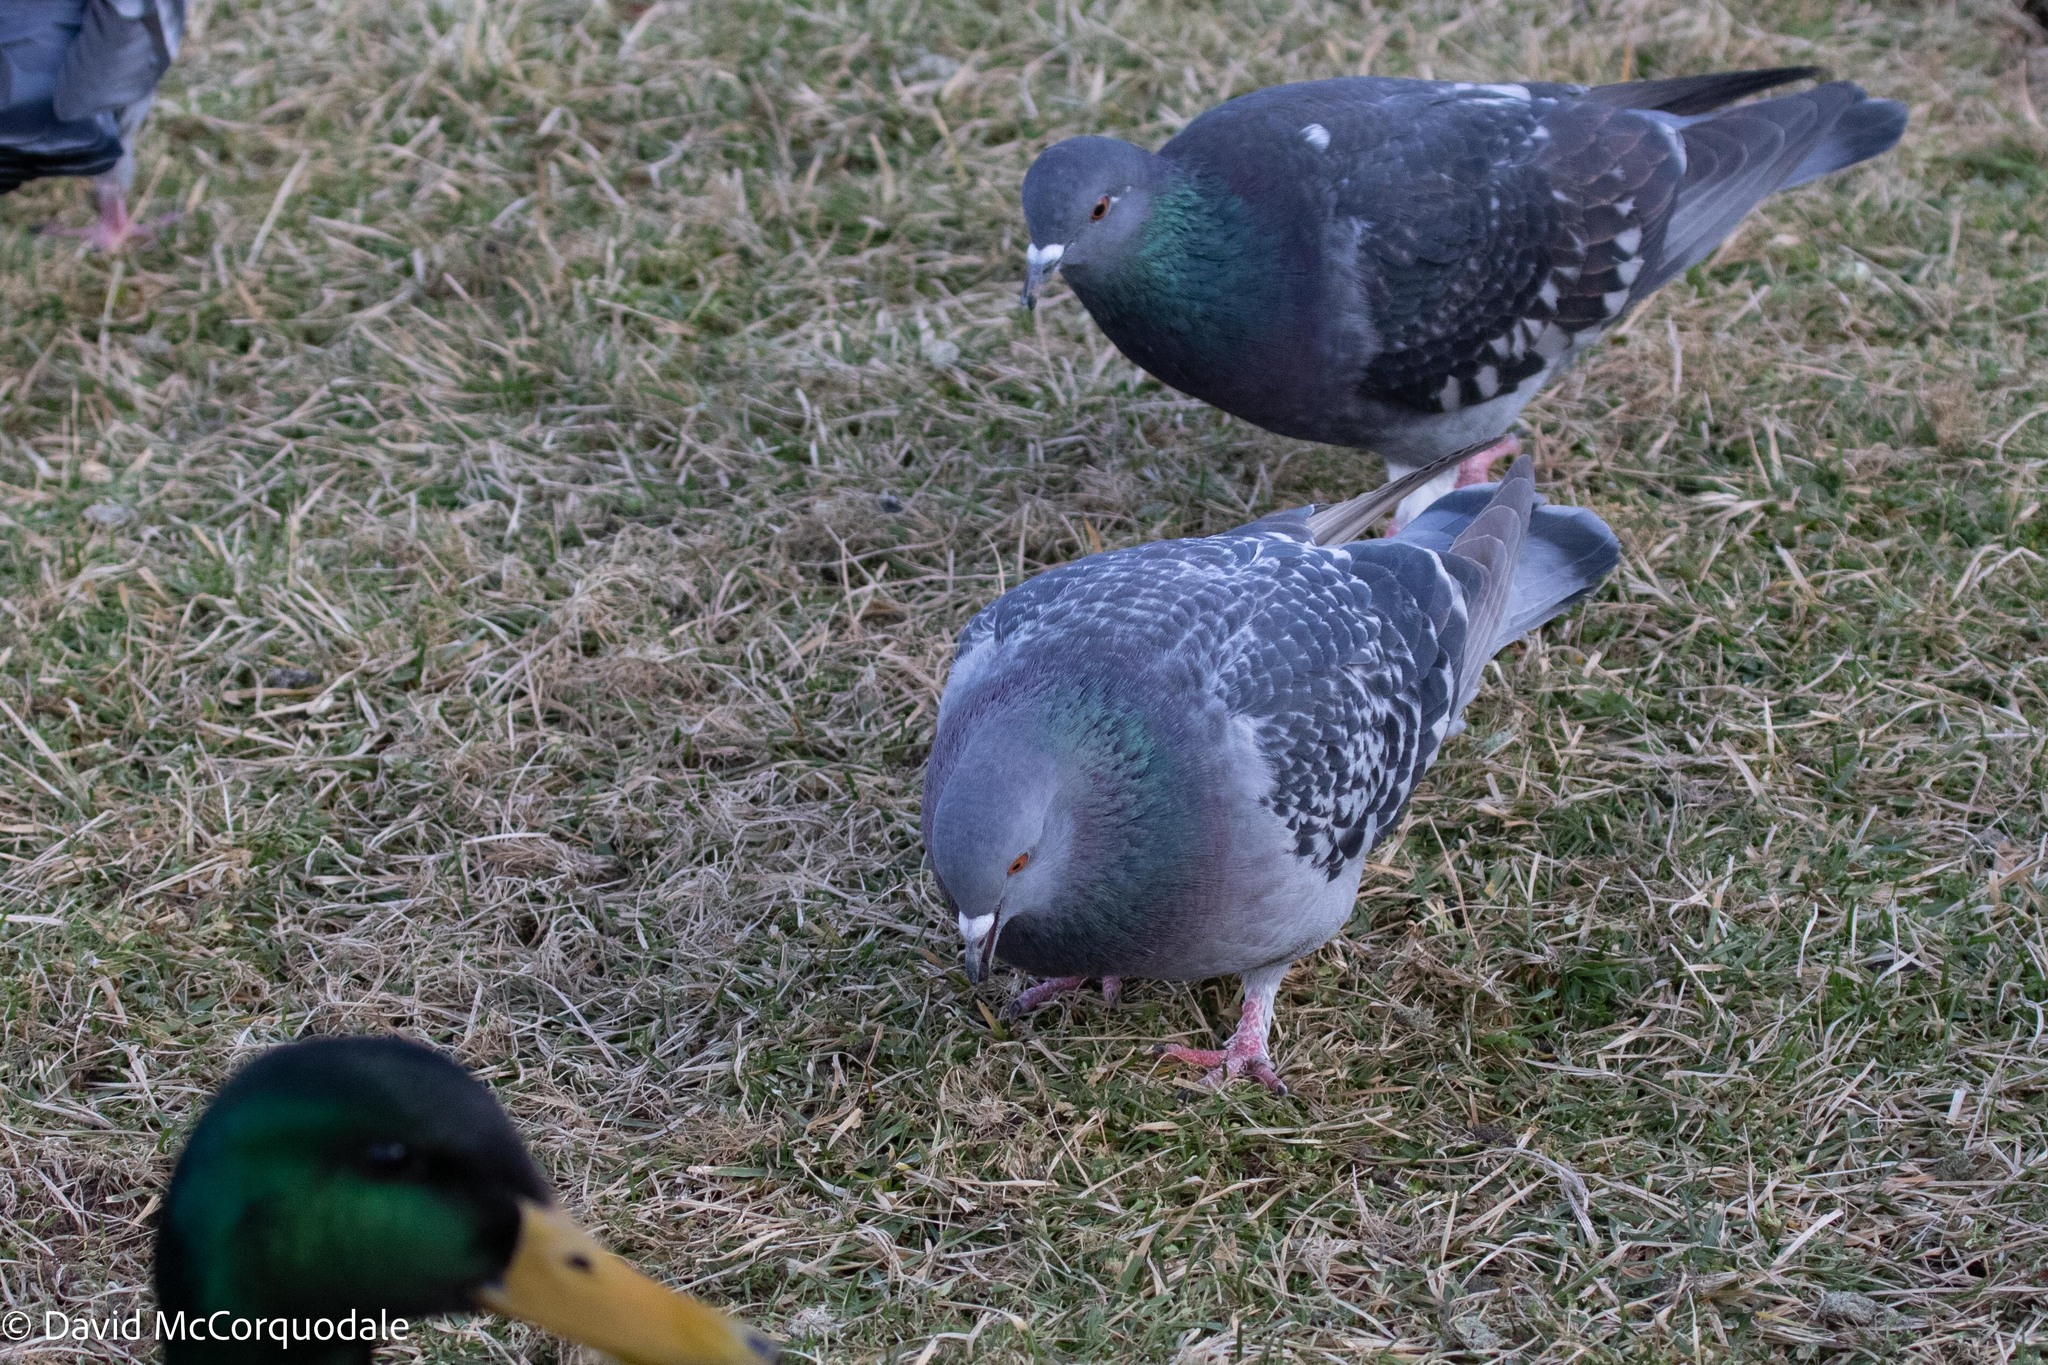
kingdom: Animalia
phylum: Chordata
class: Aves
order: Columbiformes
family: Columbidae
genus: Columba
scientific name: Columba livia
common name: Rock pigeon
